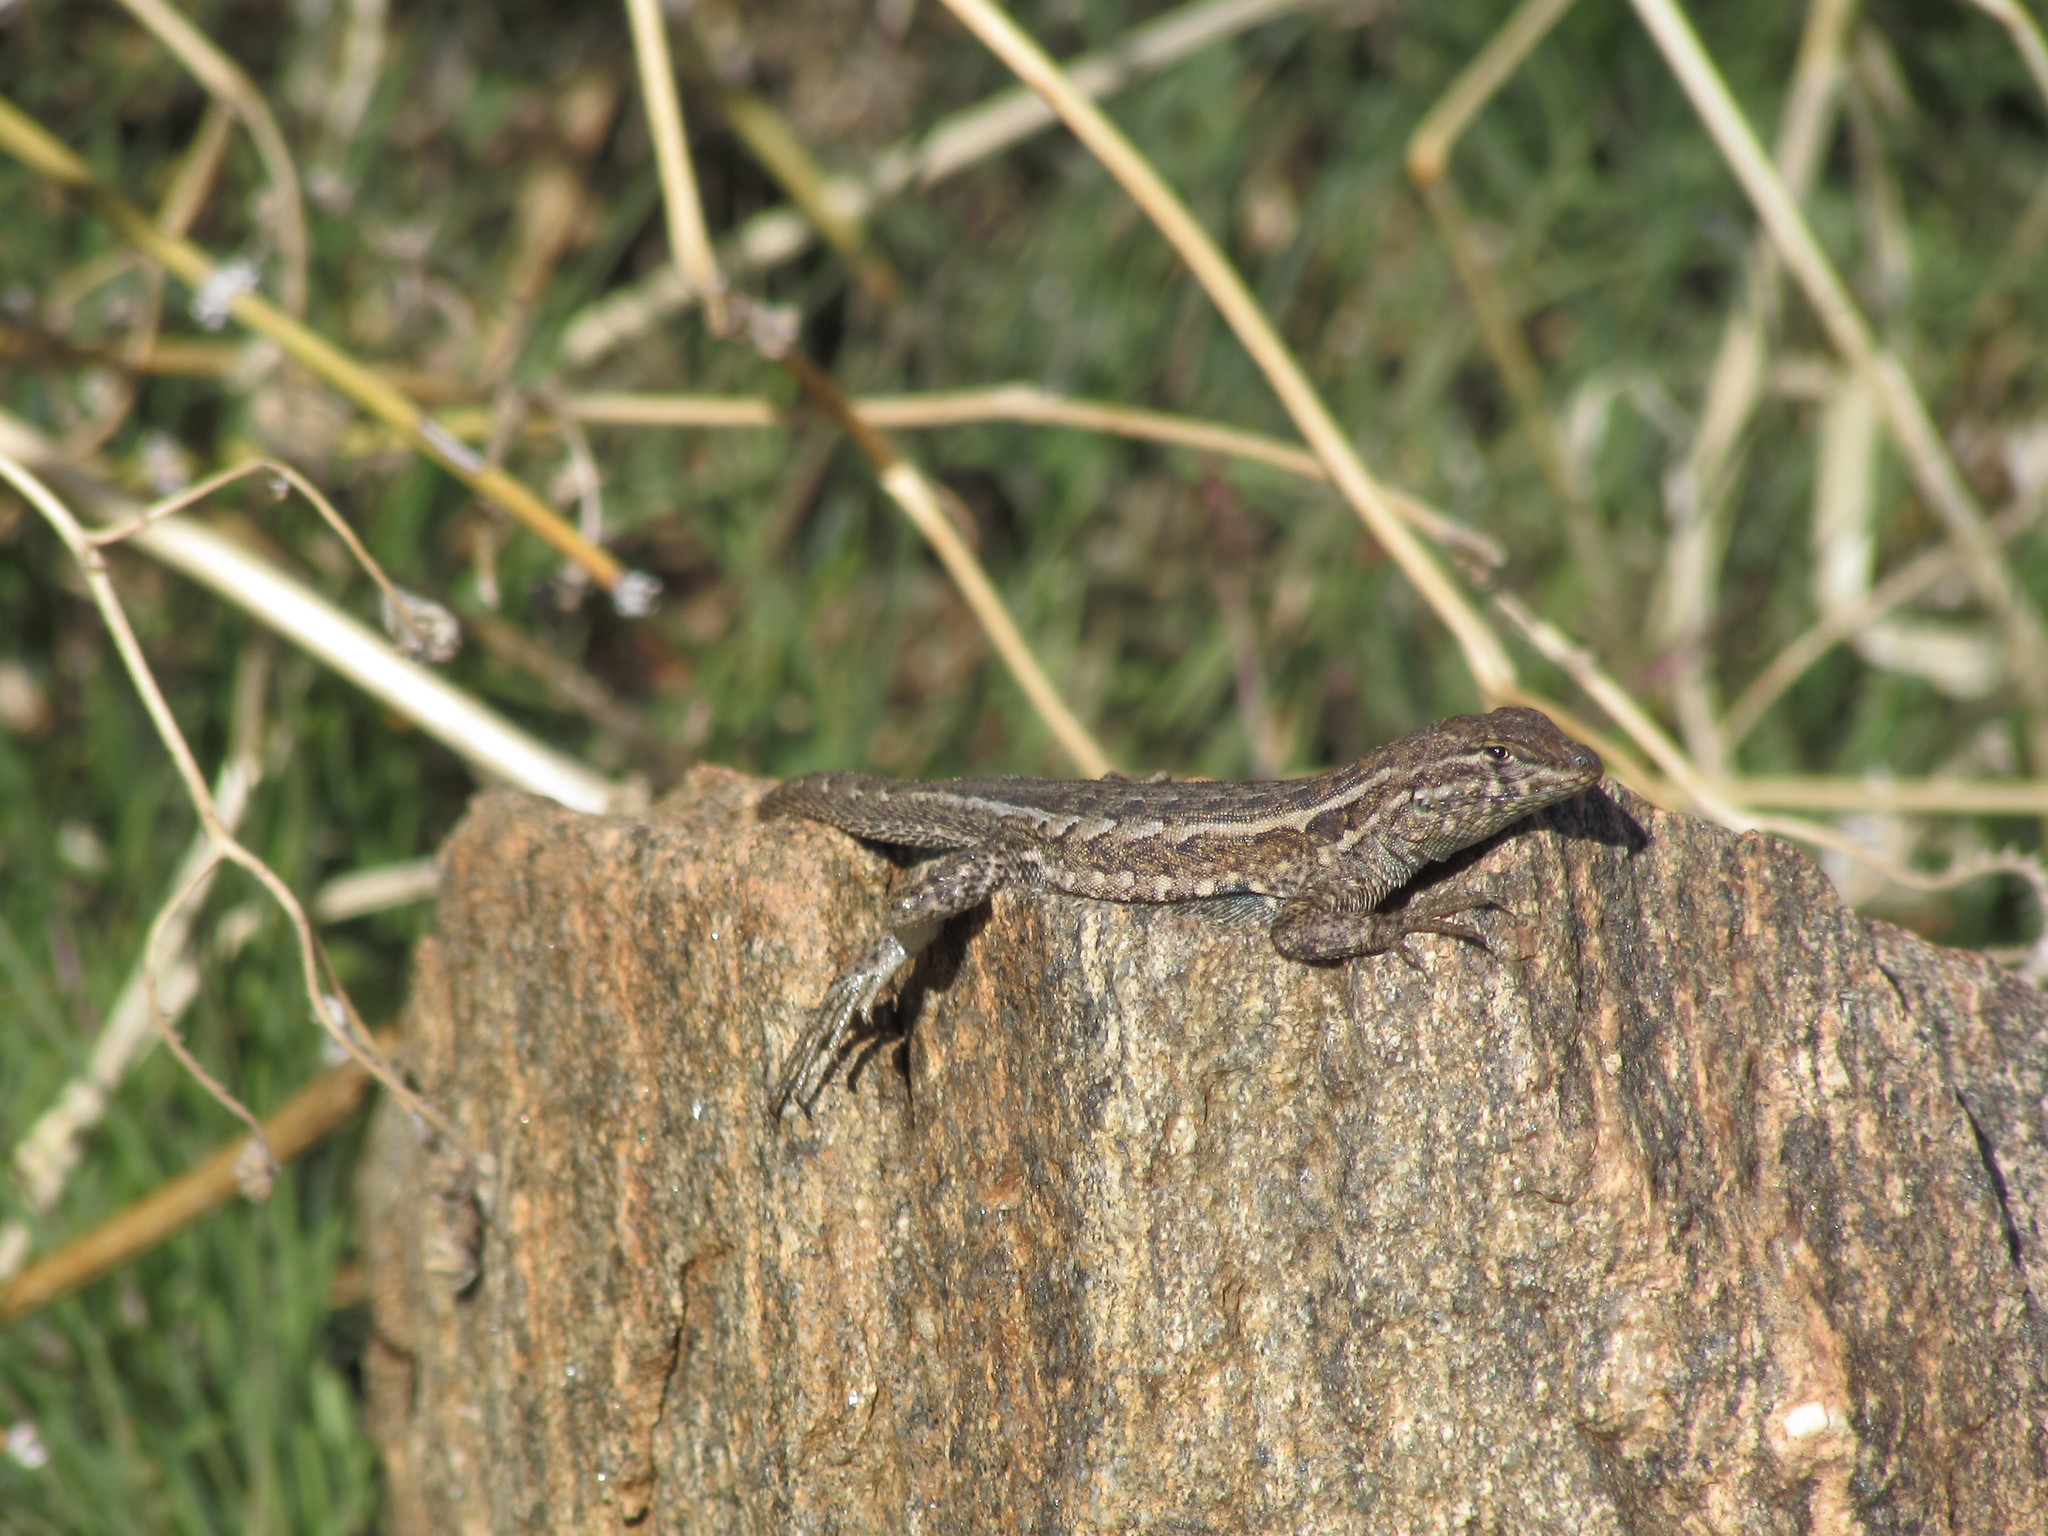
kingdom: Animalia
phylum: Chordata
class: Squamata
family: Phrynosomatidae
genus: Uta
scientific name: Uta stansburiana
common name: Side-blotched lizard
